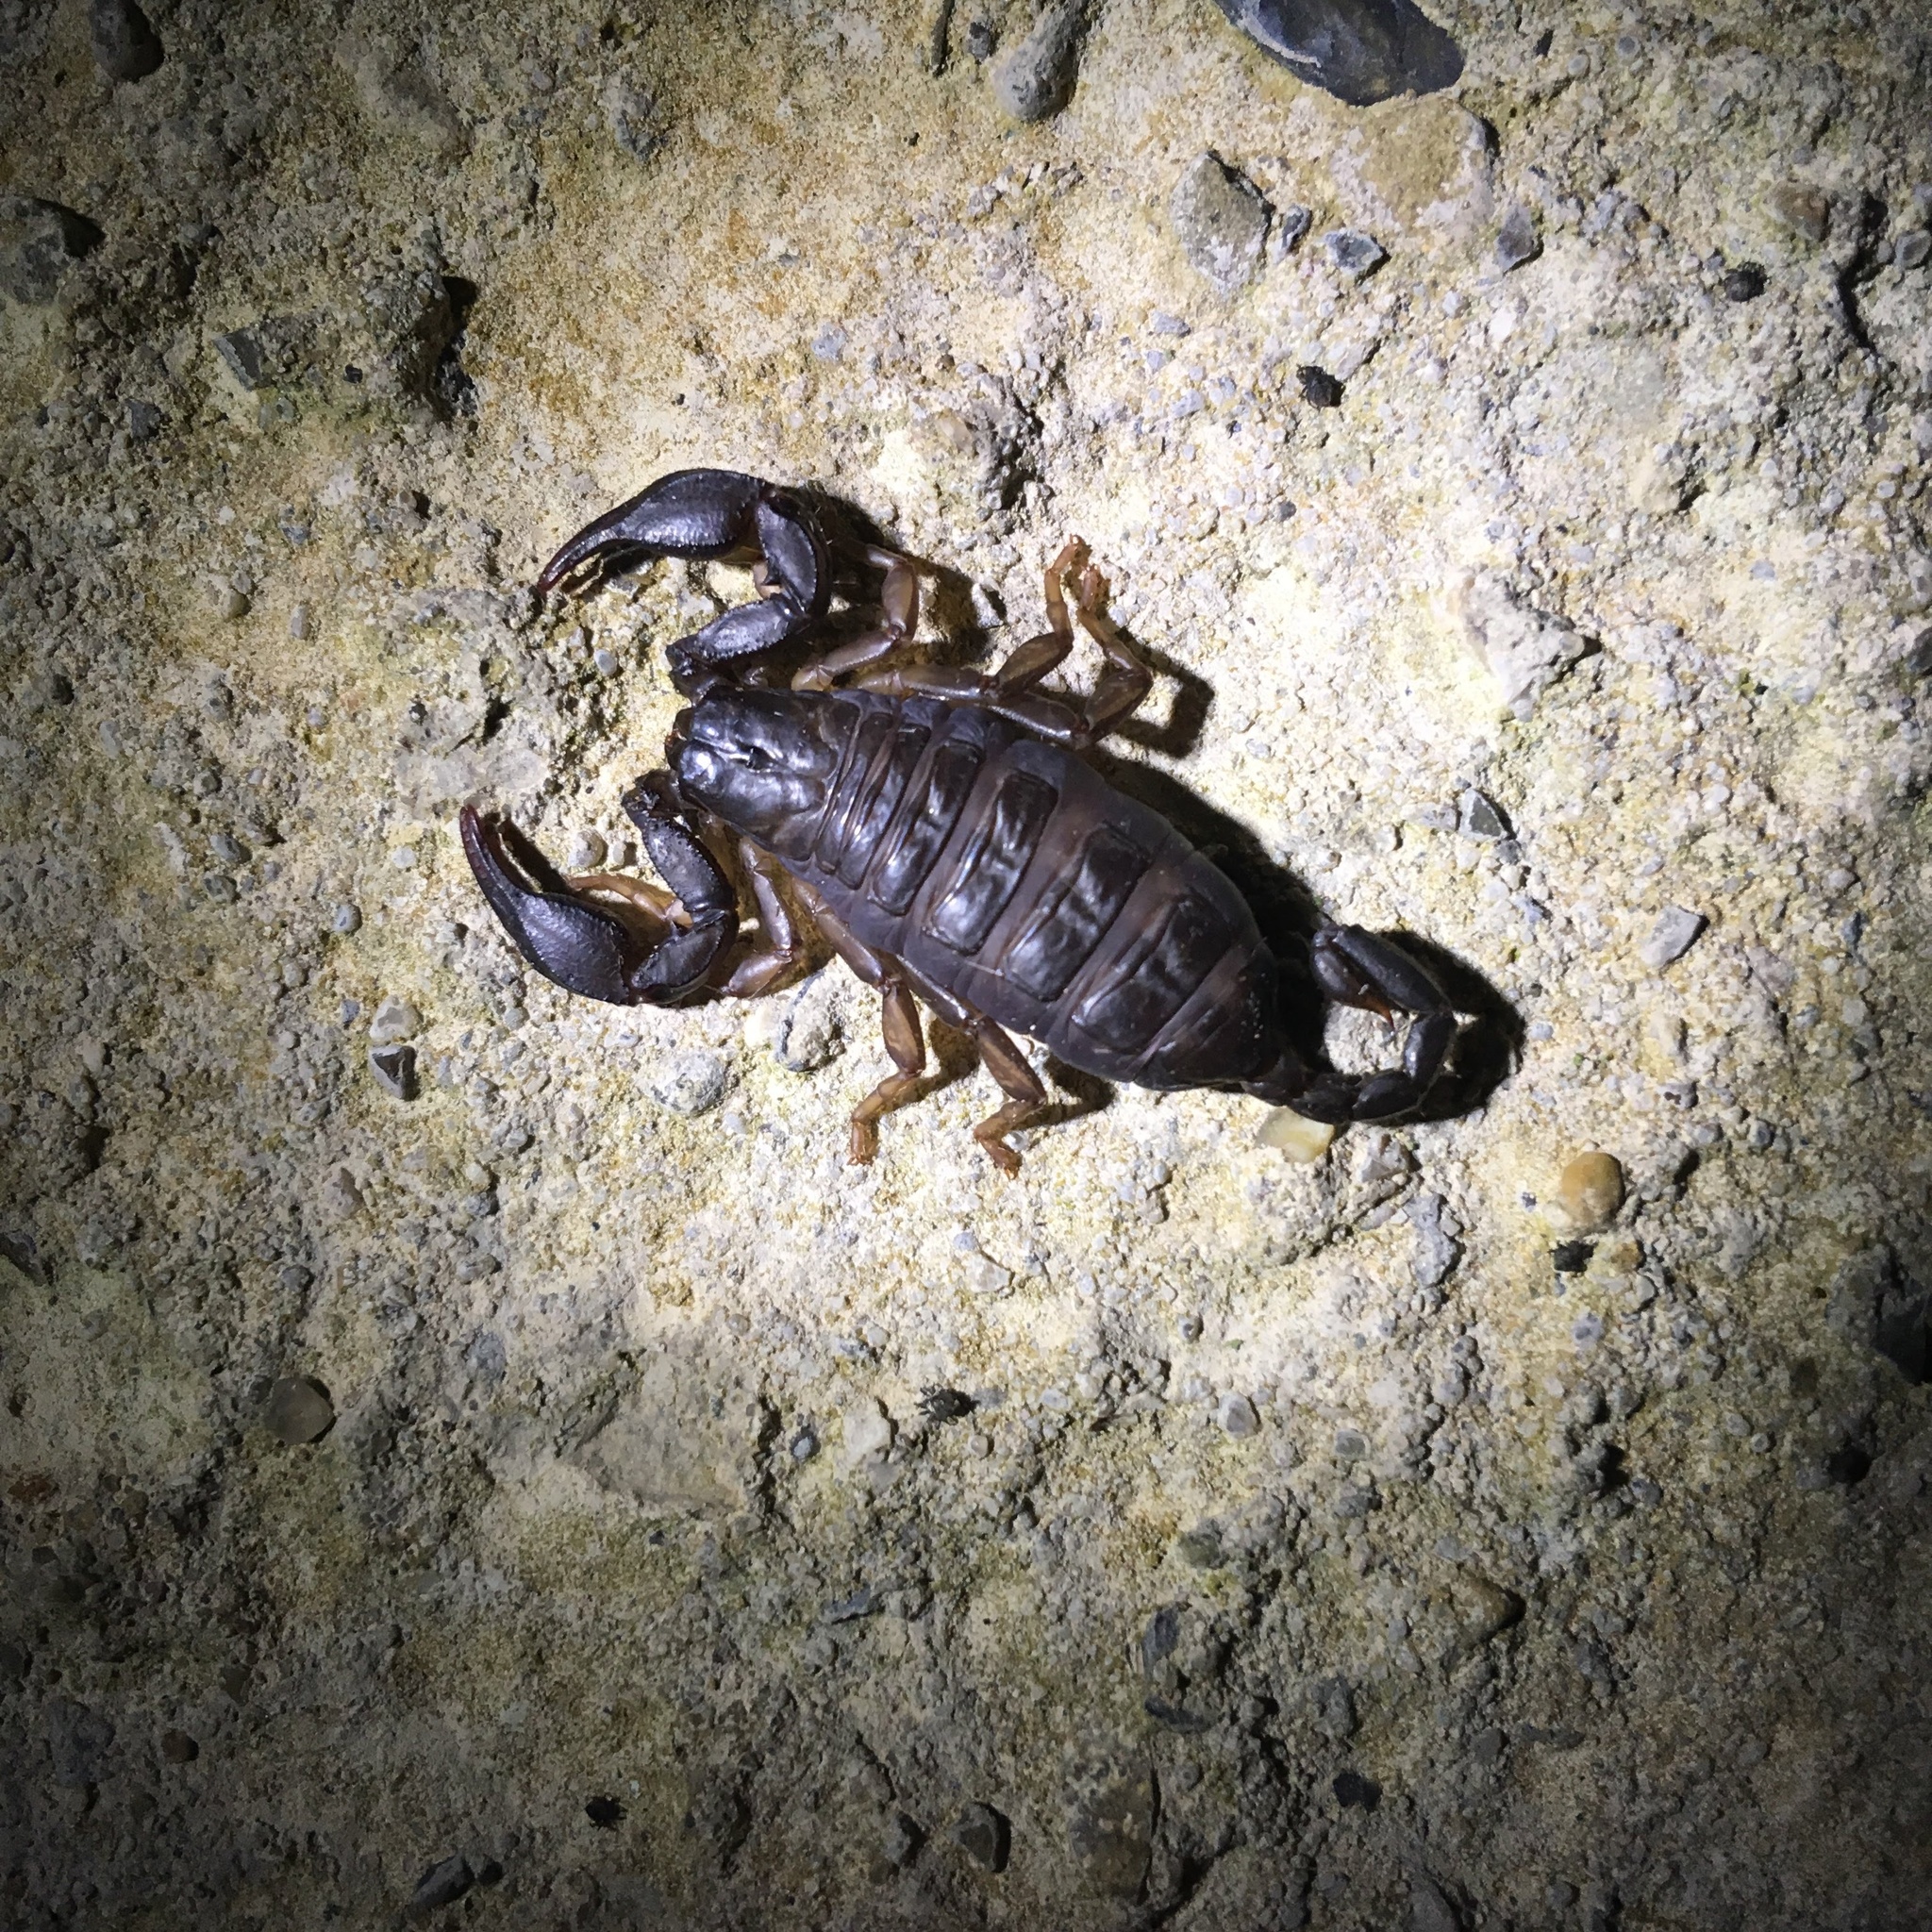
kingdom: Animalia
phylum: Arthropoda
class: Arachnida
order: Scorpiones
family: Euscorpiidae
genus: Euscorpius
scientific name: Euscorpius italicus
